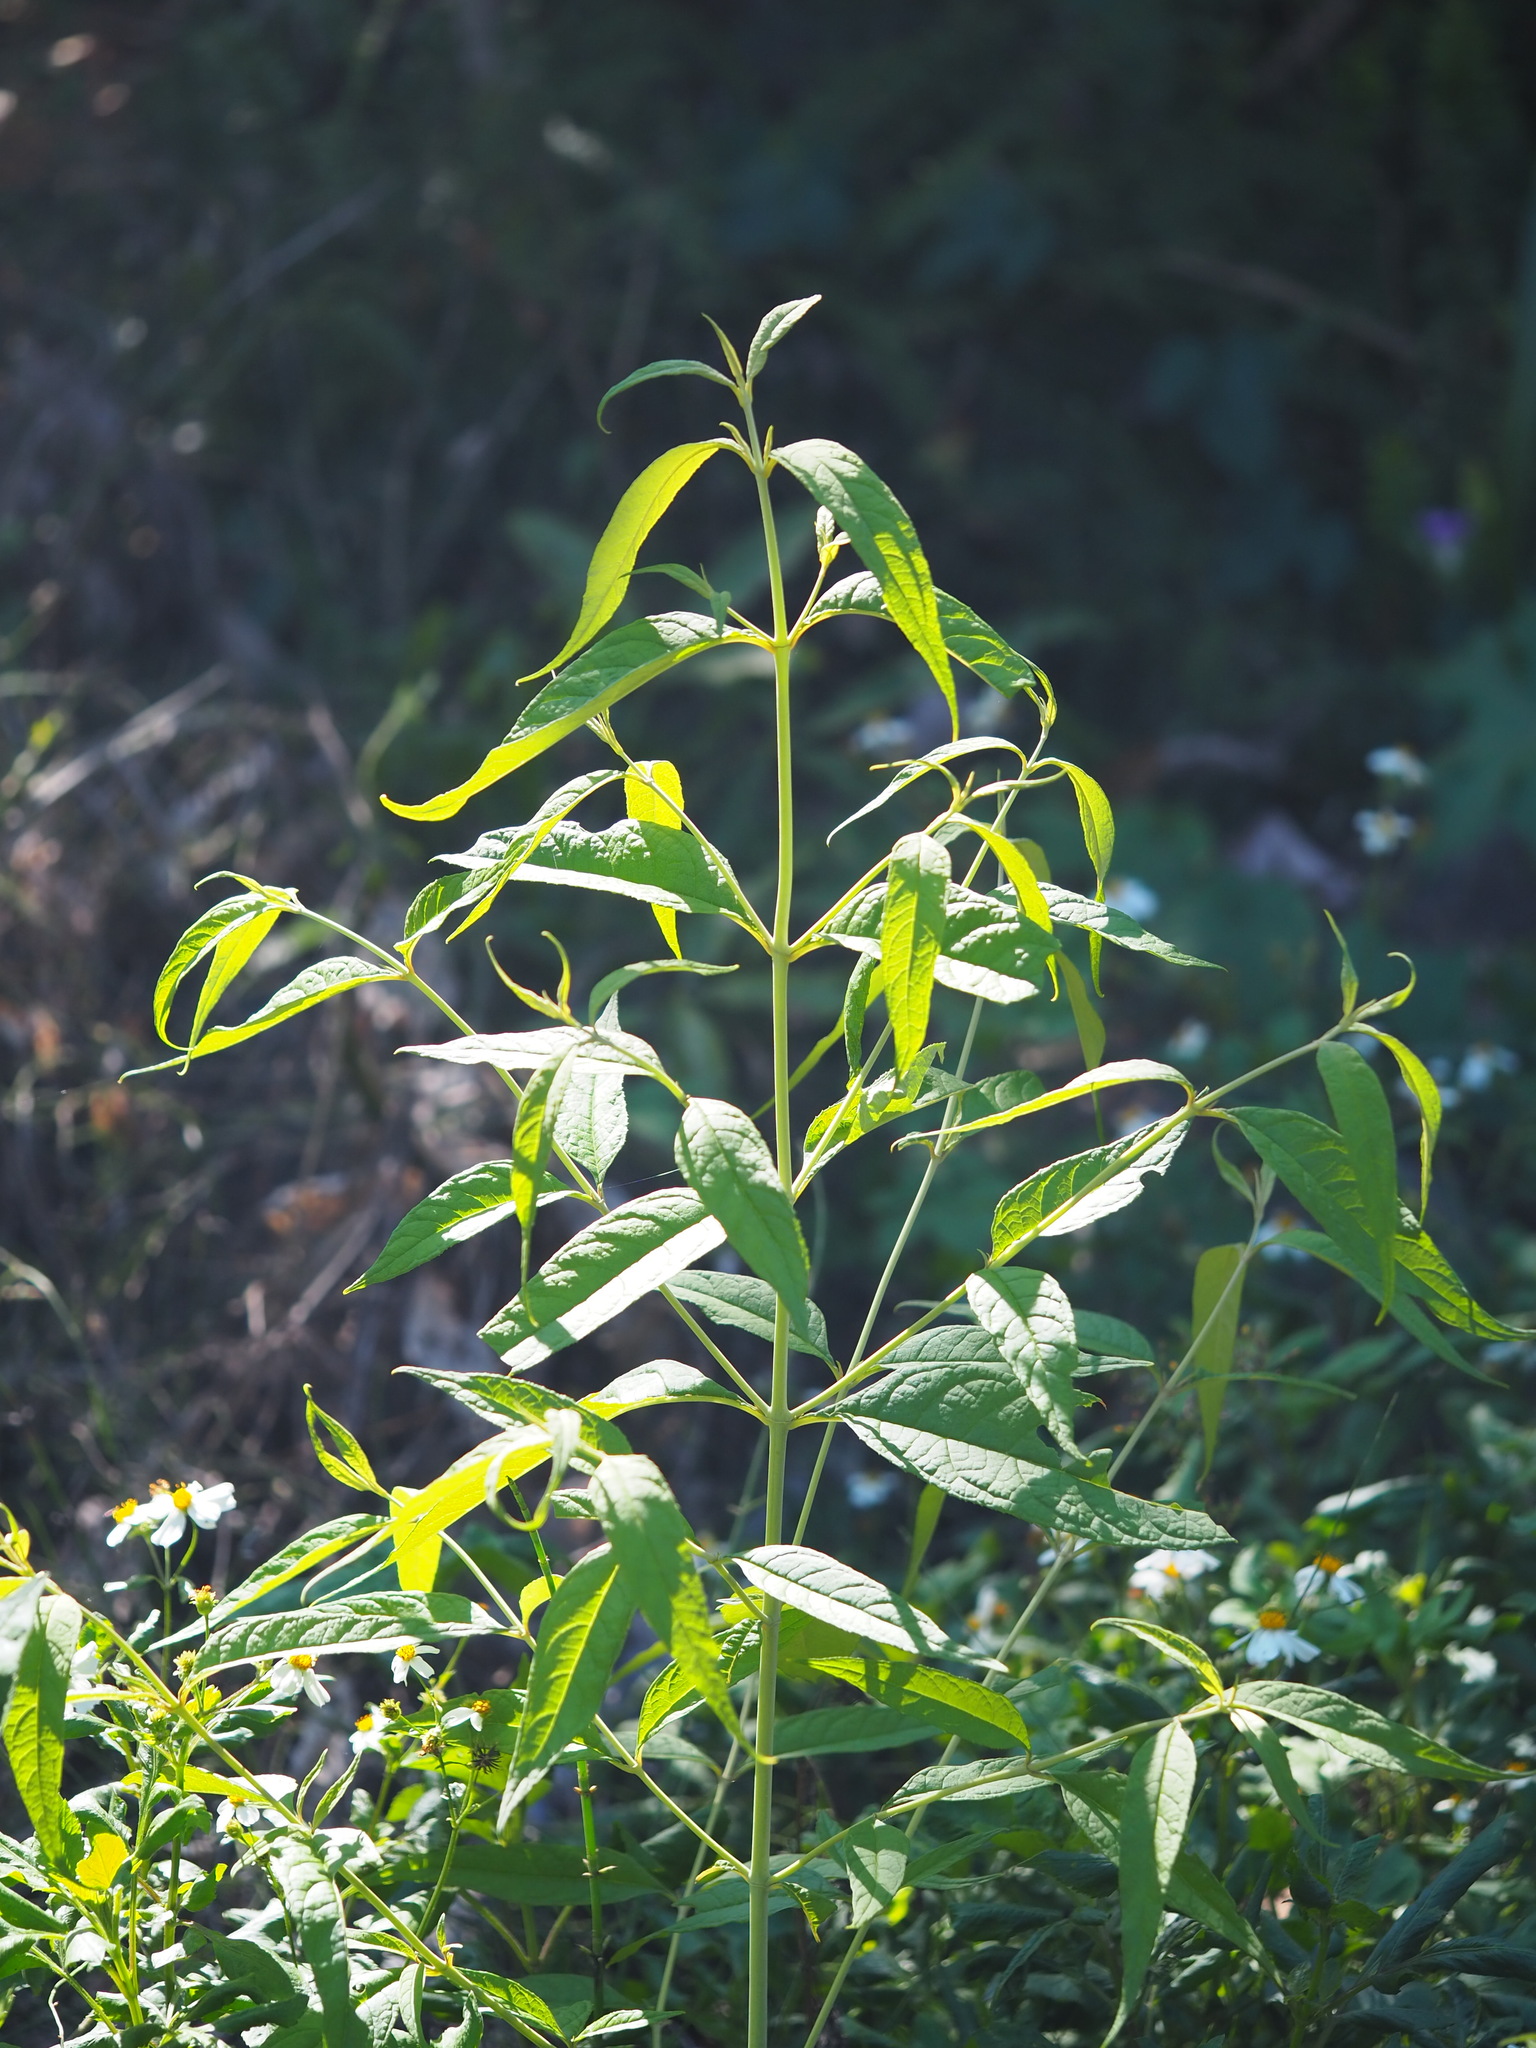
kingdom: Plantae
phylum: Tracheophyta
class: Magnoliopsida
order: Lamiales
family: Scrophulariaceae
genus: Buddleja
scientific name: Buddleja asiatica
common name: Dog tail
